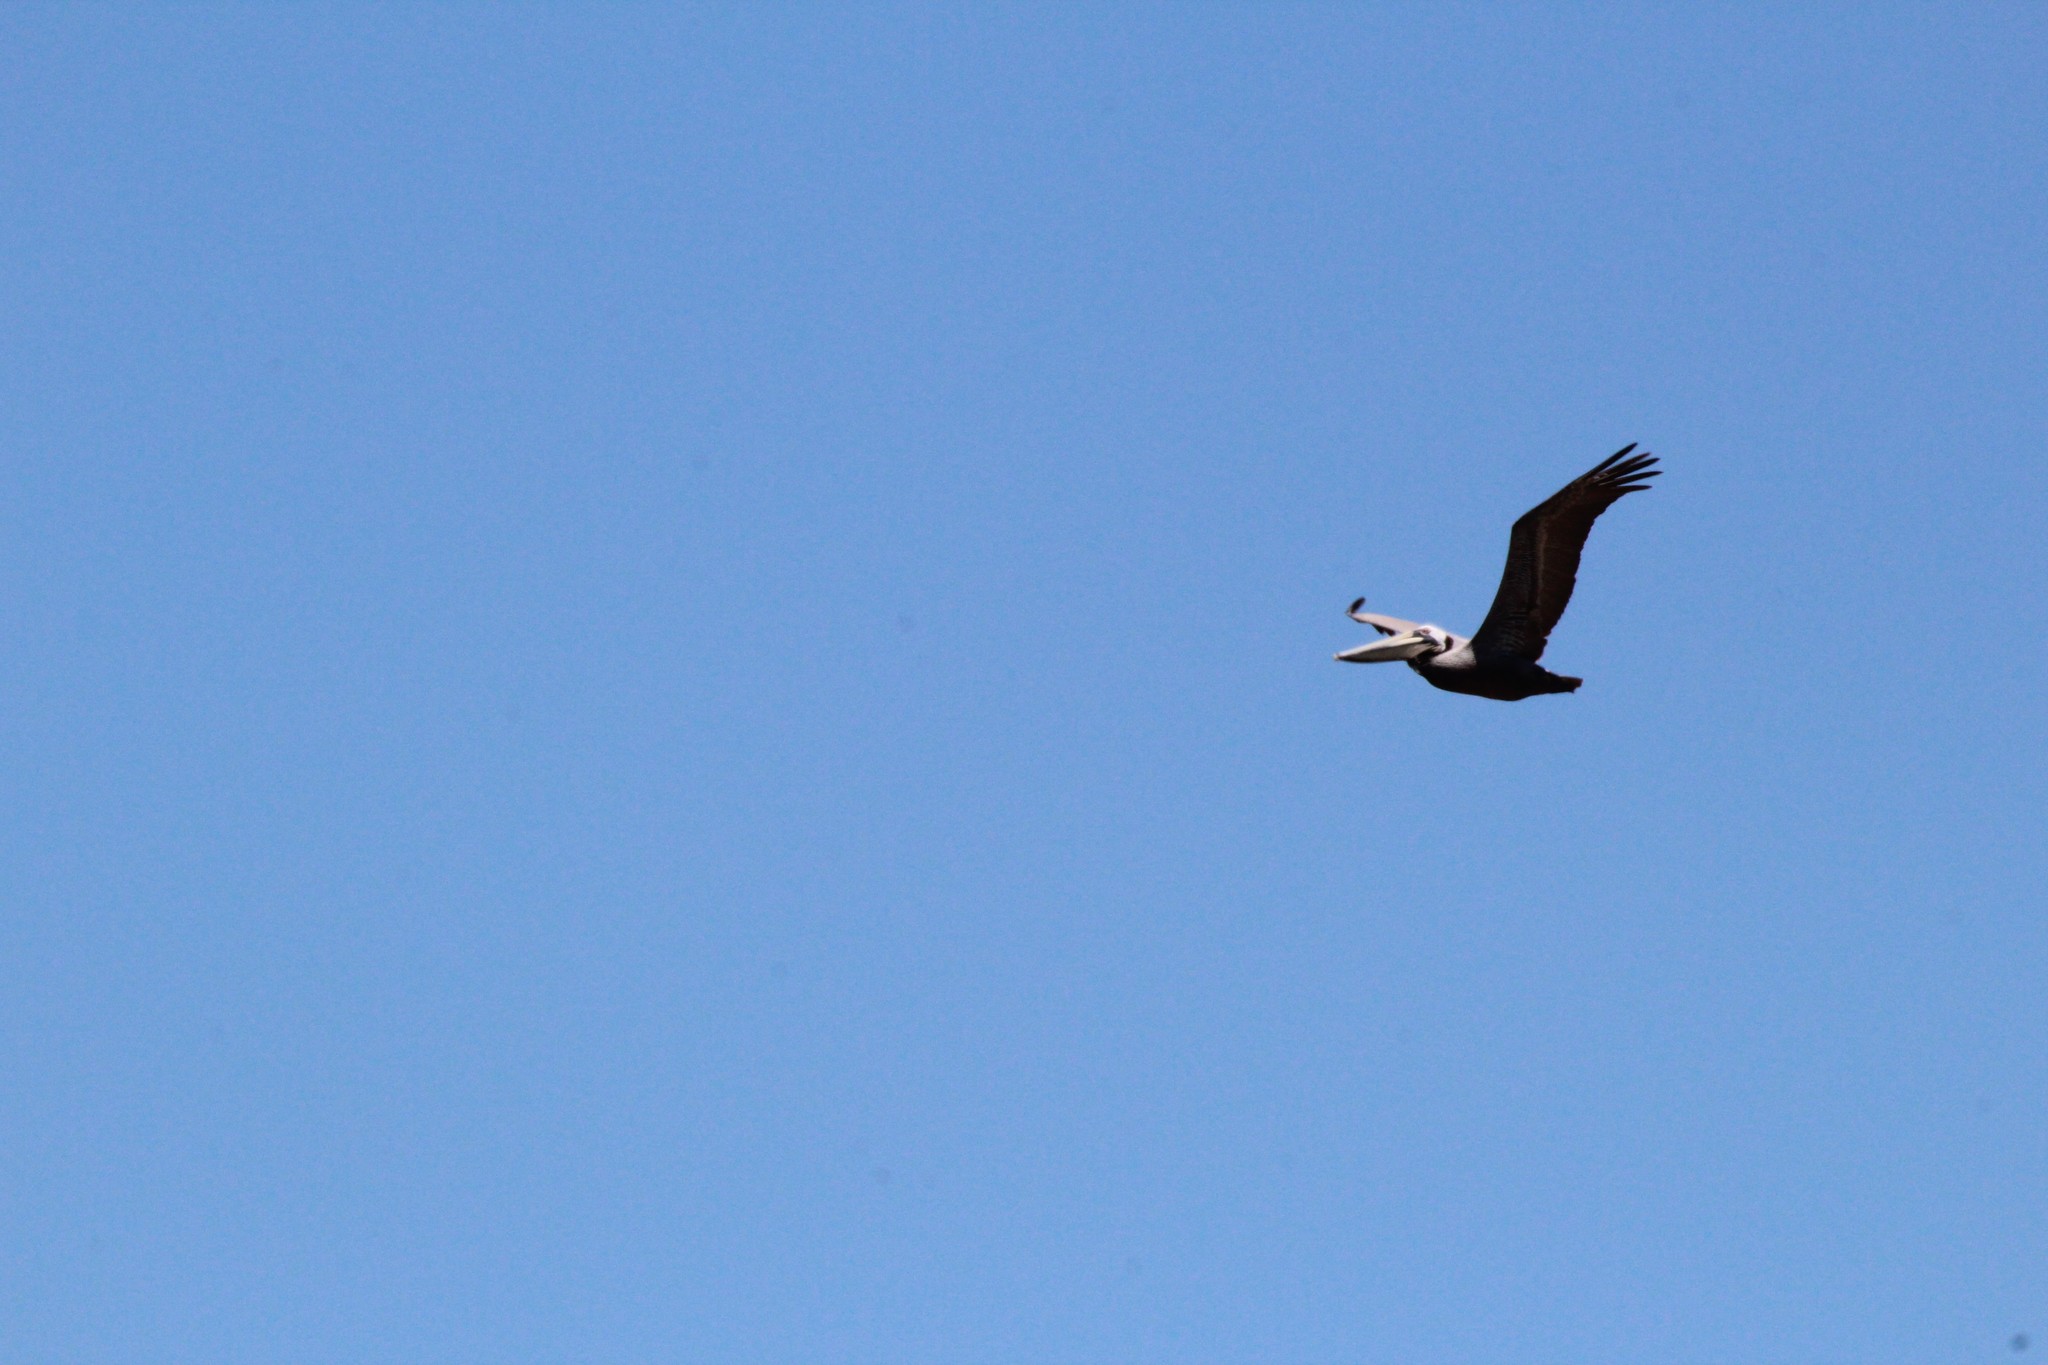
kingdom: Animalia
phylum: Chordata
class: Aves
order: Pelecaniformes
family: Pelecanidae
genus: Pelecanus
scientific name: Pelecanus occidentalis
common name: Brown pelican
